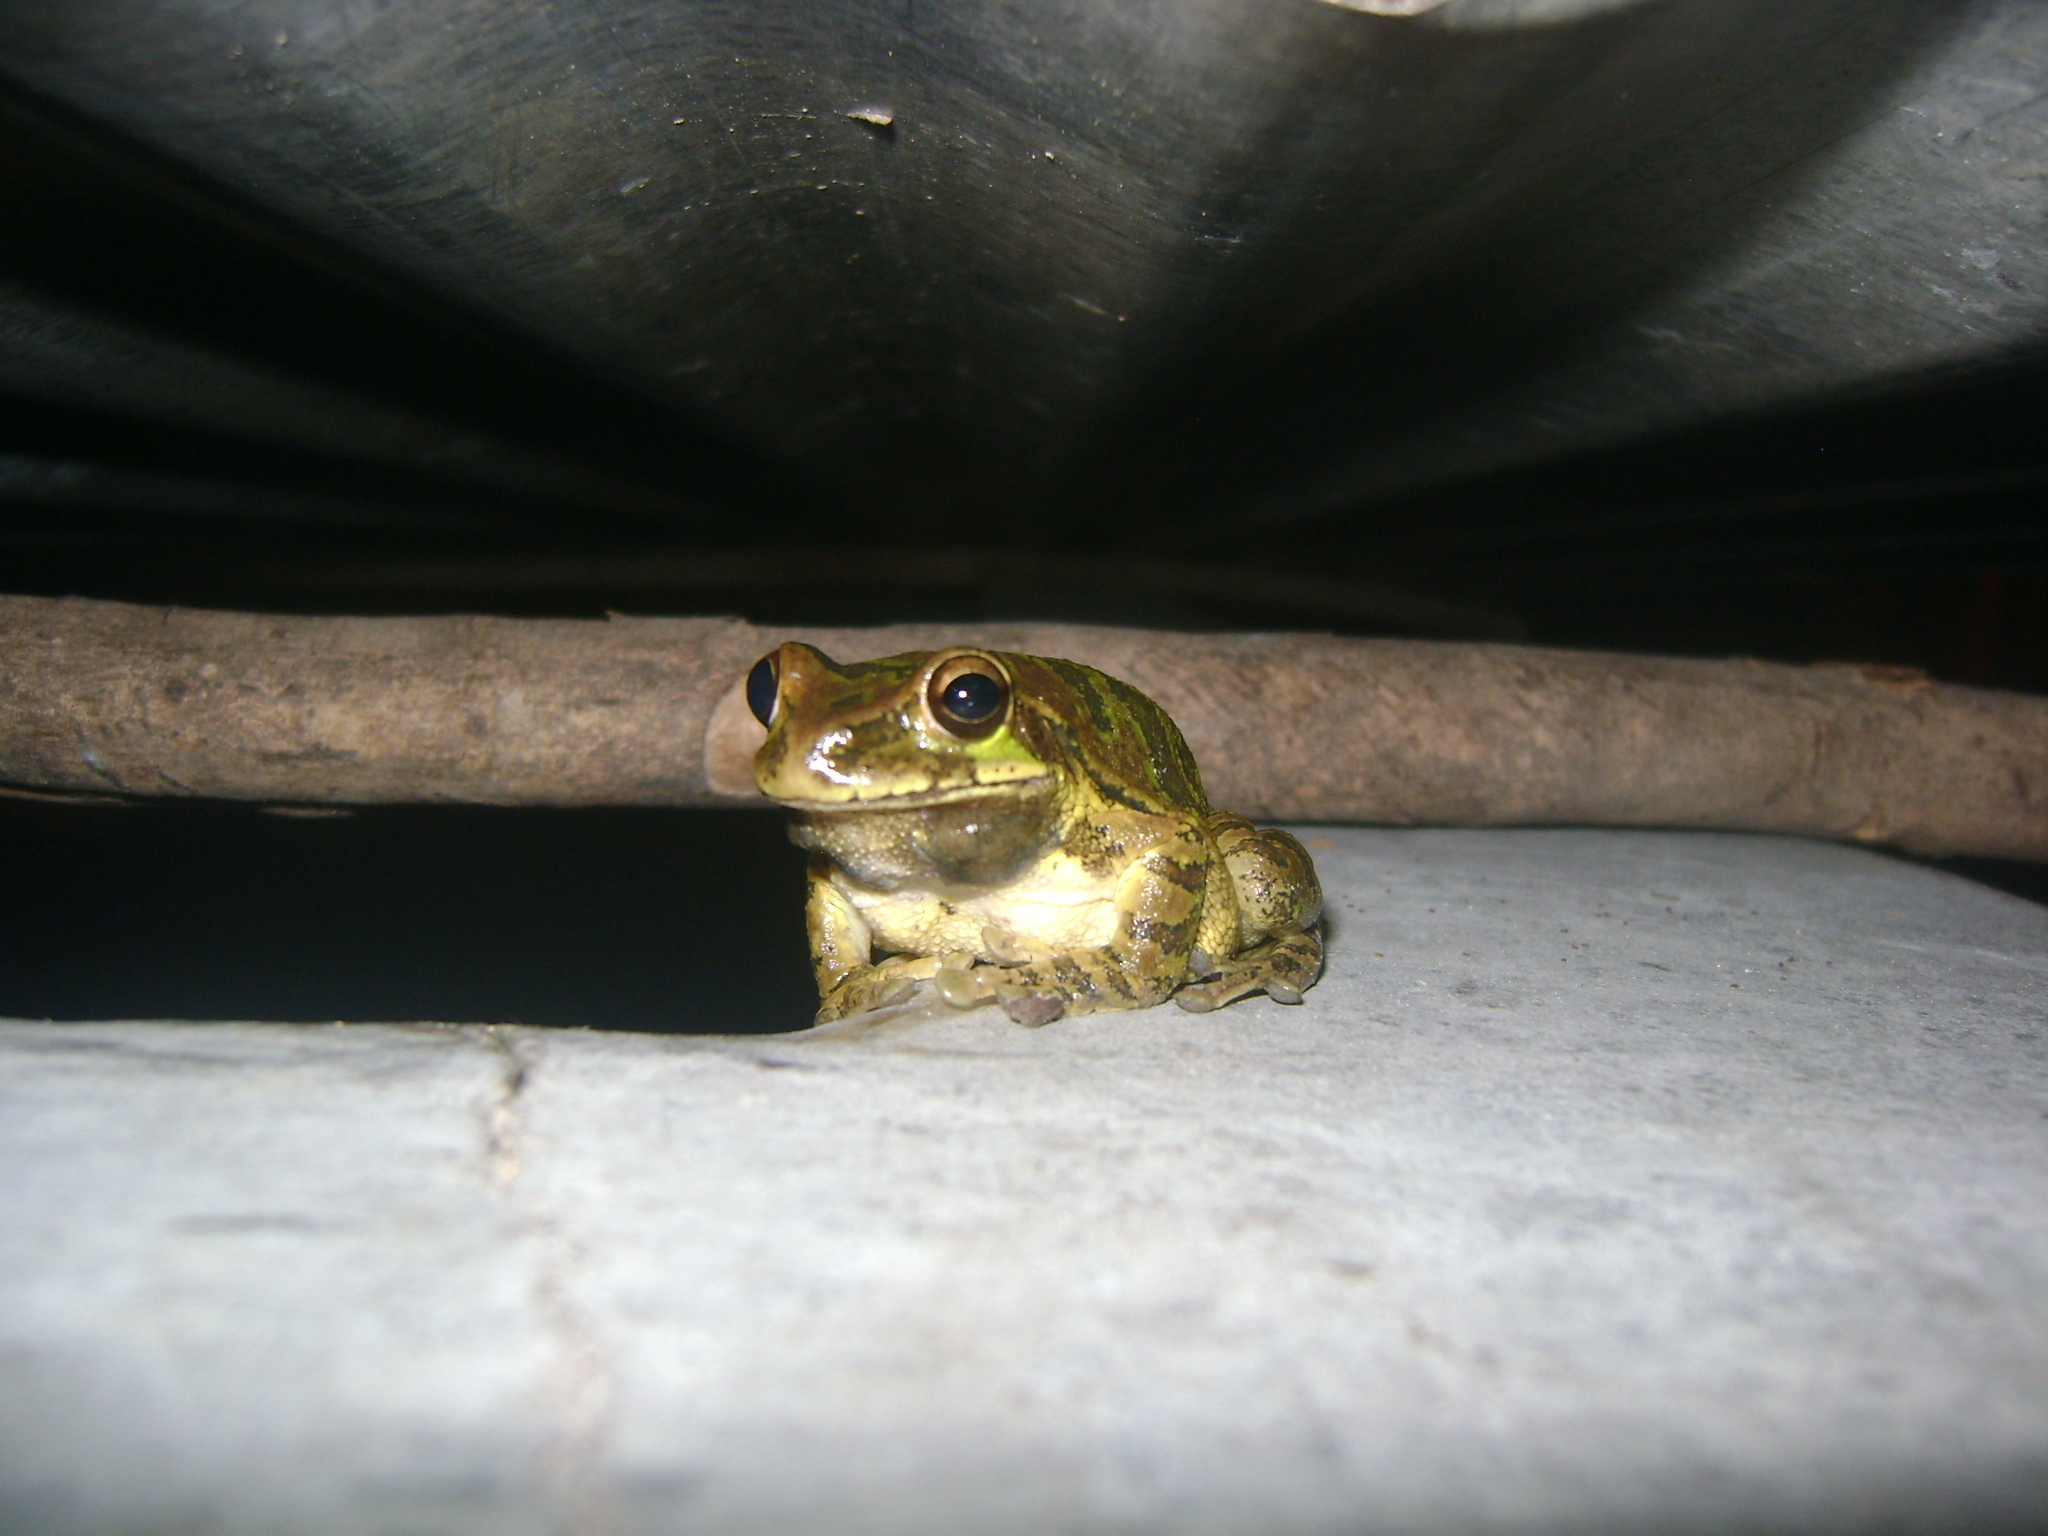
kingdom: Animalia
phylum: Chordata
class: Amphibia
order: Anura
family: Hylidae
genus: Smilisca
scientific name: Smilisca baudinii
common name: Mexican smilisca
